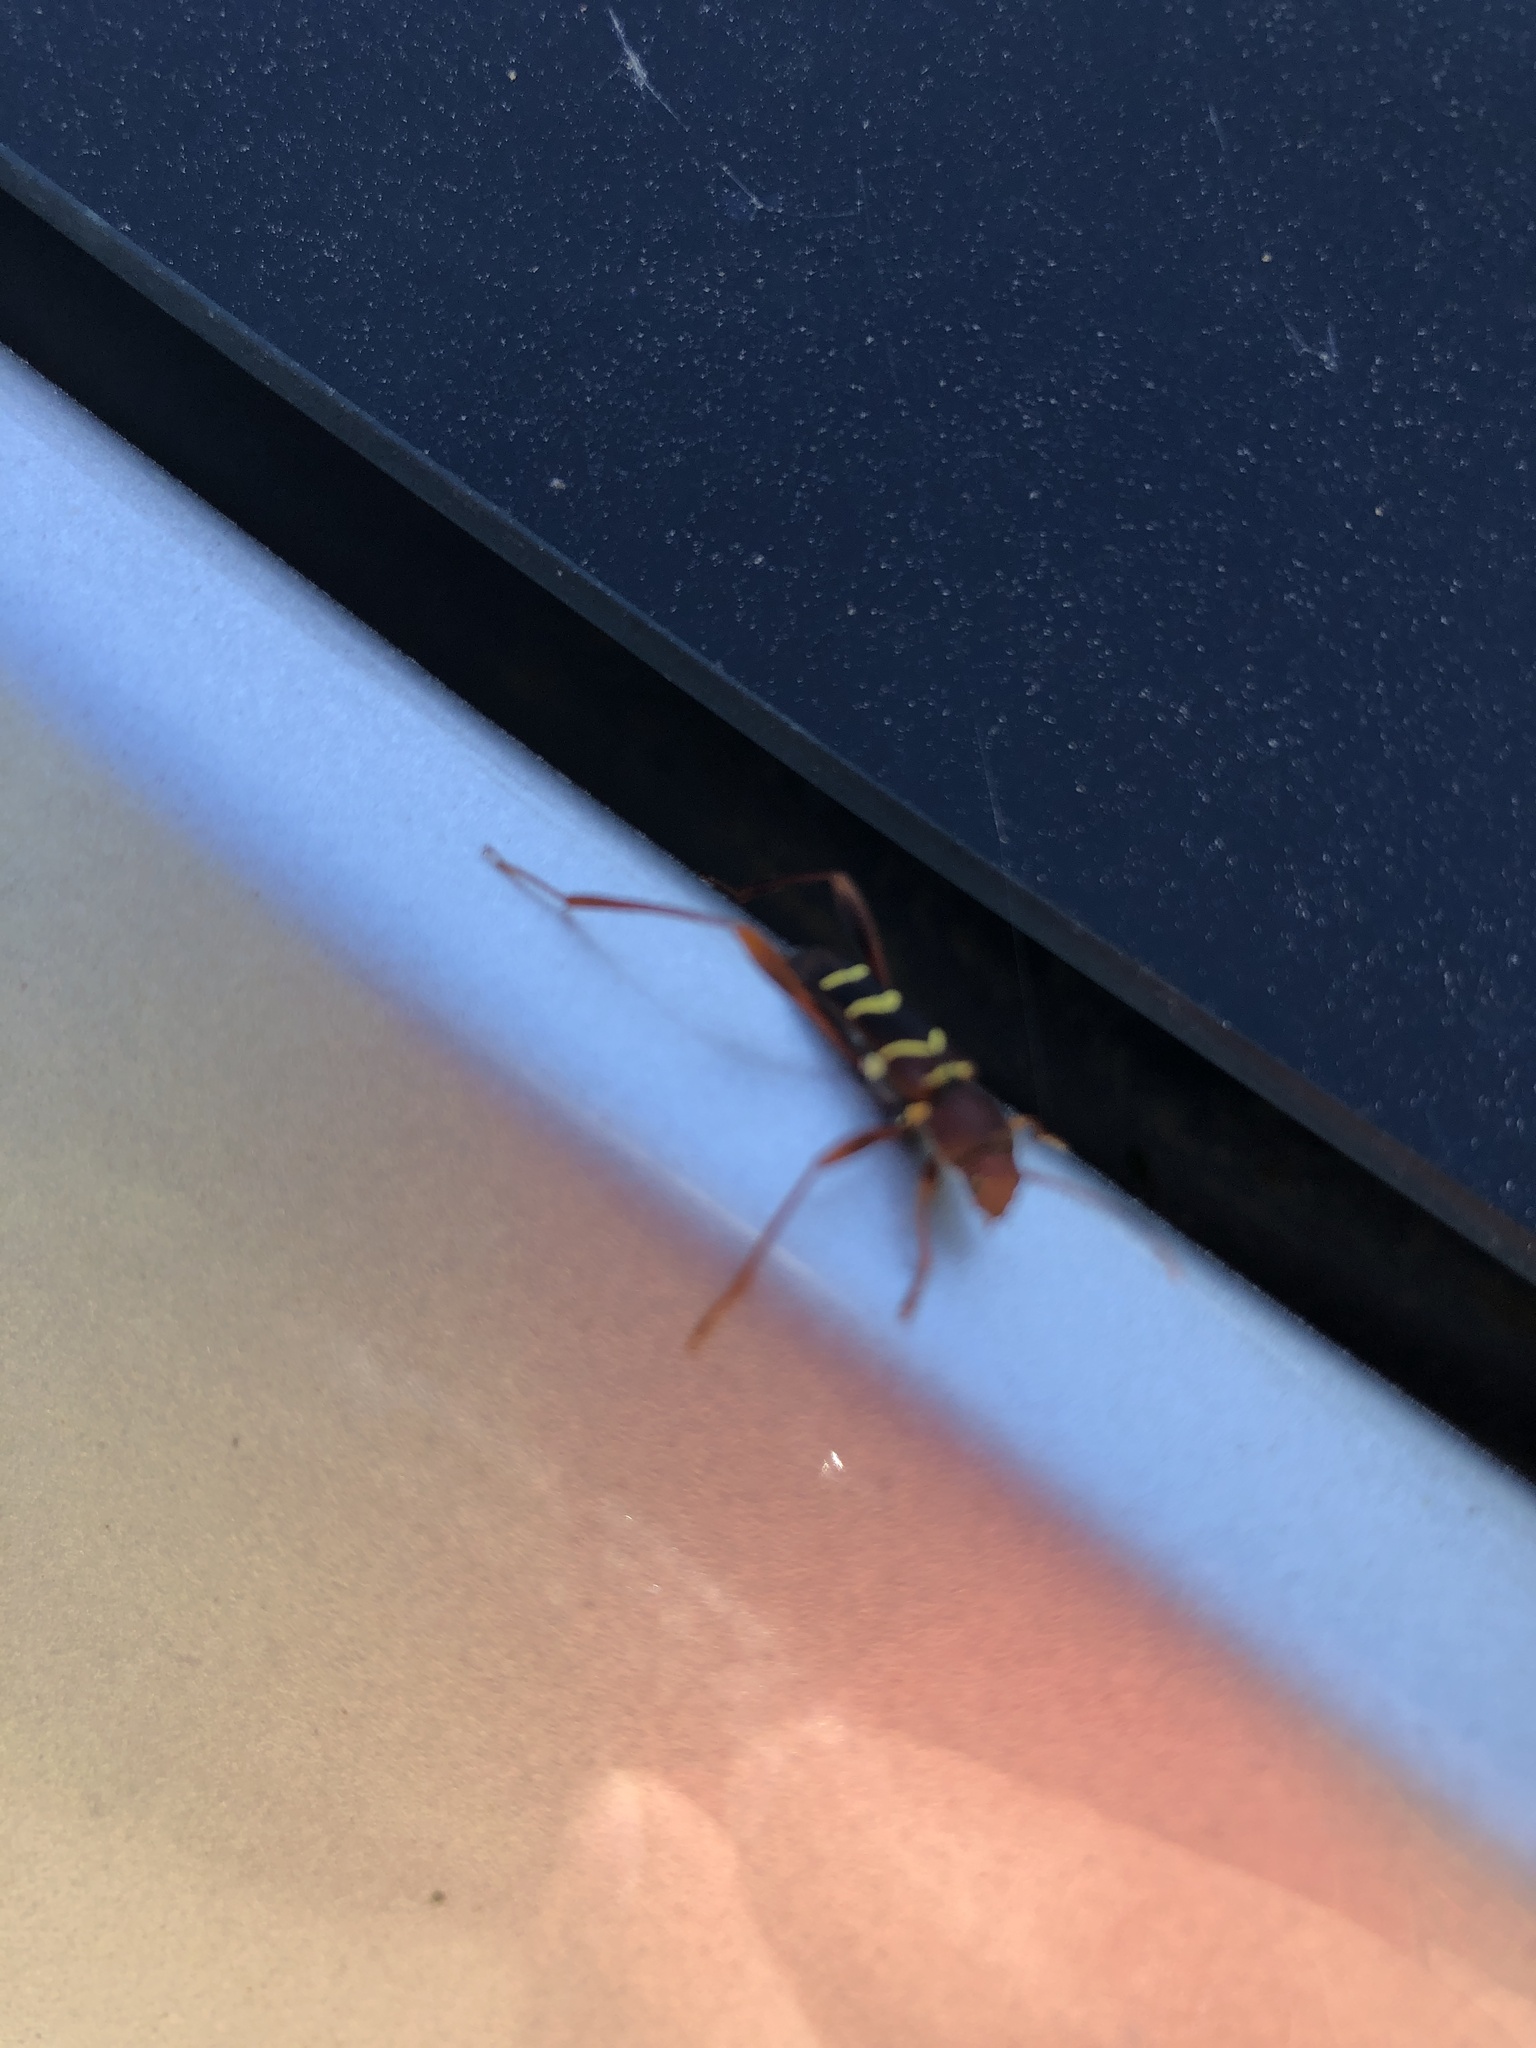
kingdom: Animalia
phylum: Arthropoda
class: Insecta
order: Coleoptera
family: Cerambycidae
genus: Neoclytus
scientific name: Neoclytus acuminatus
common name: Read-headed ash borer
